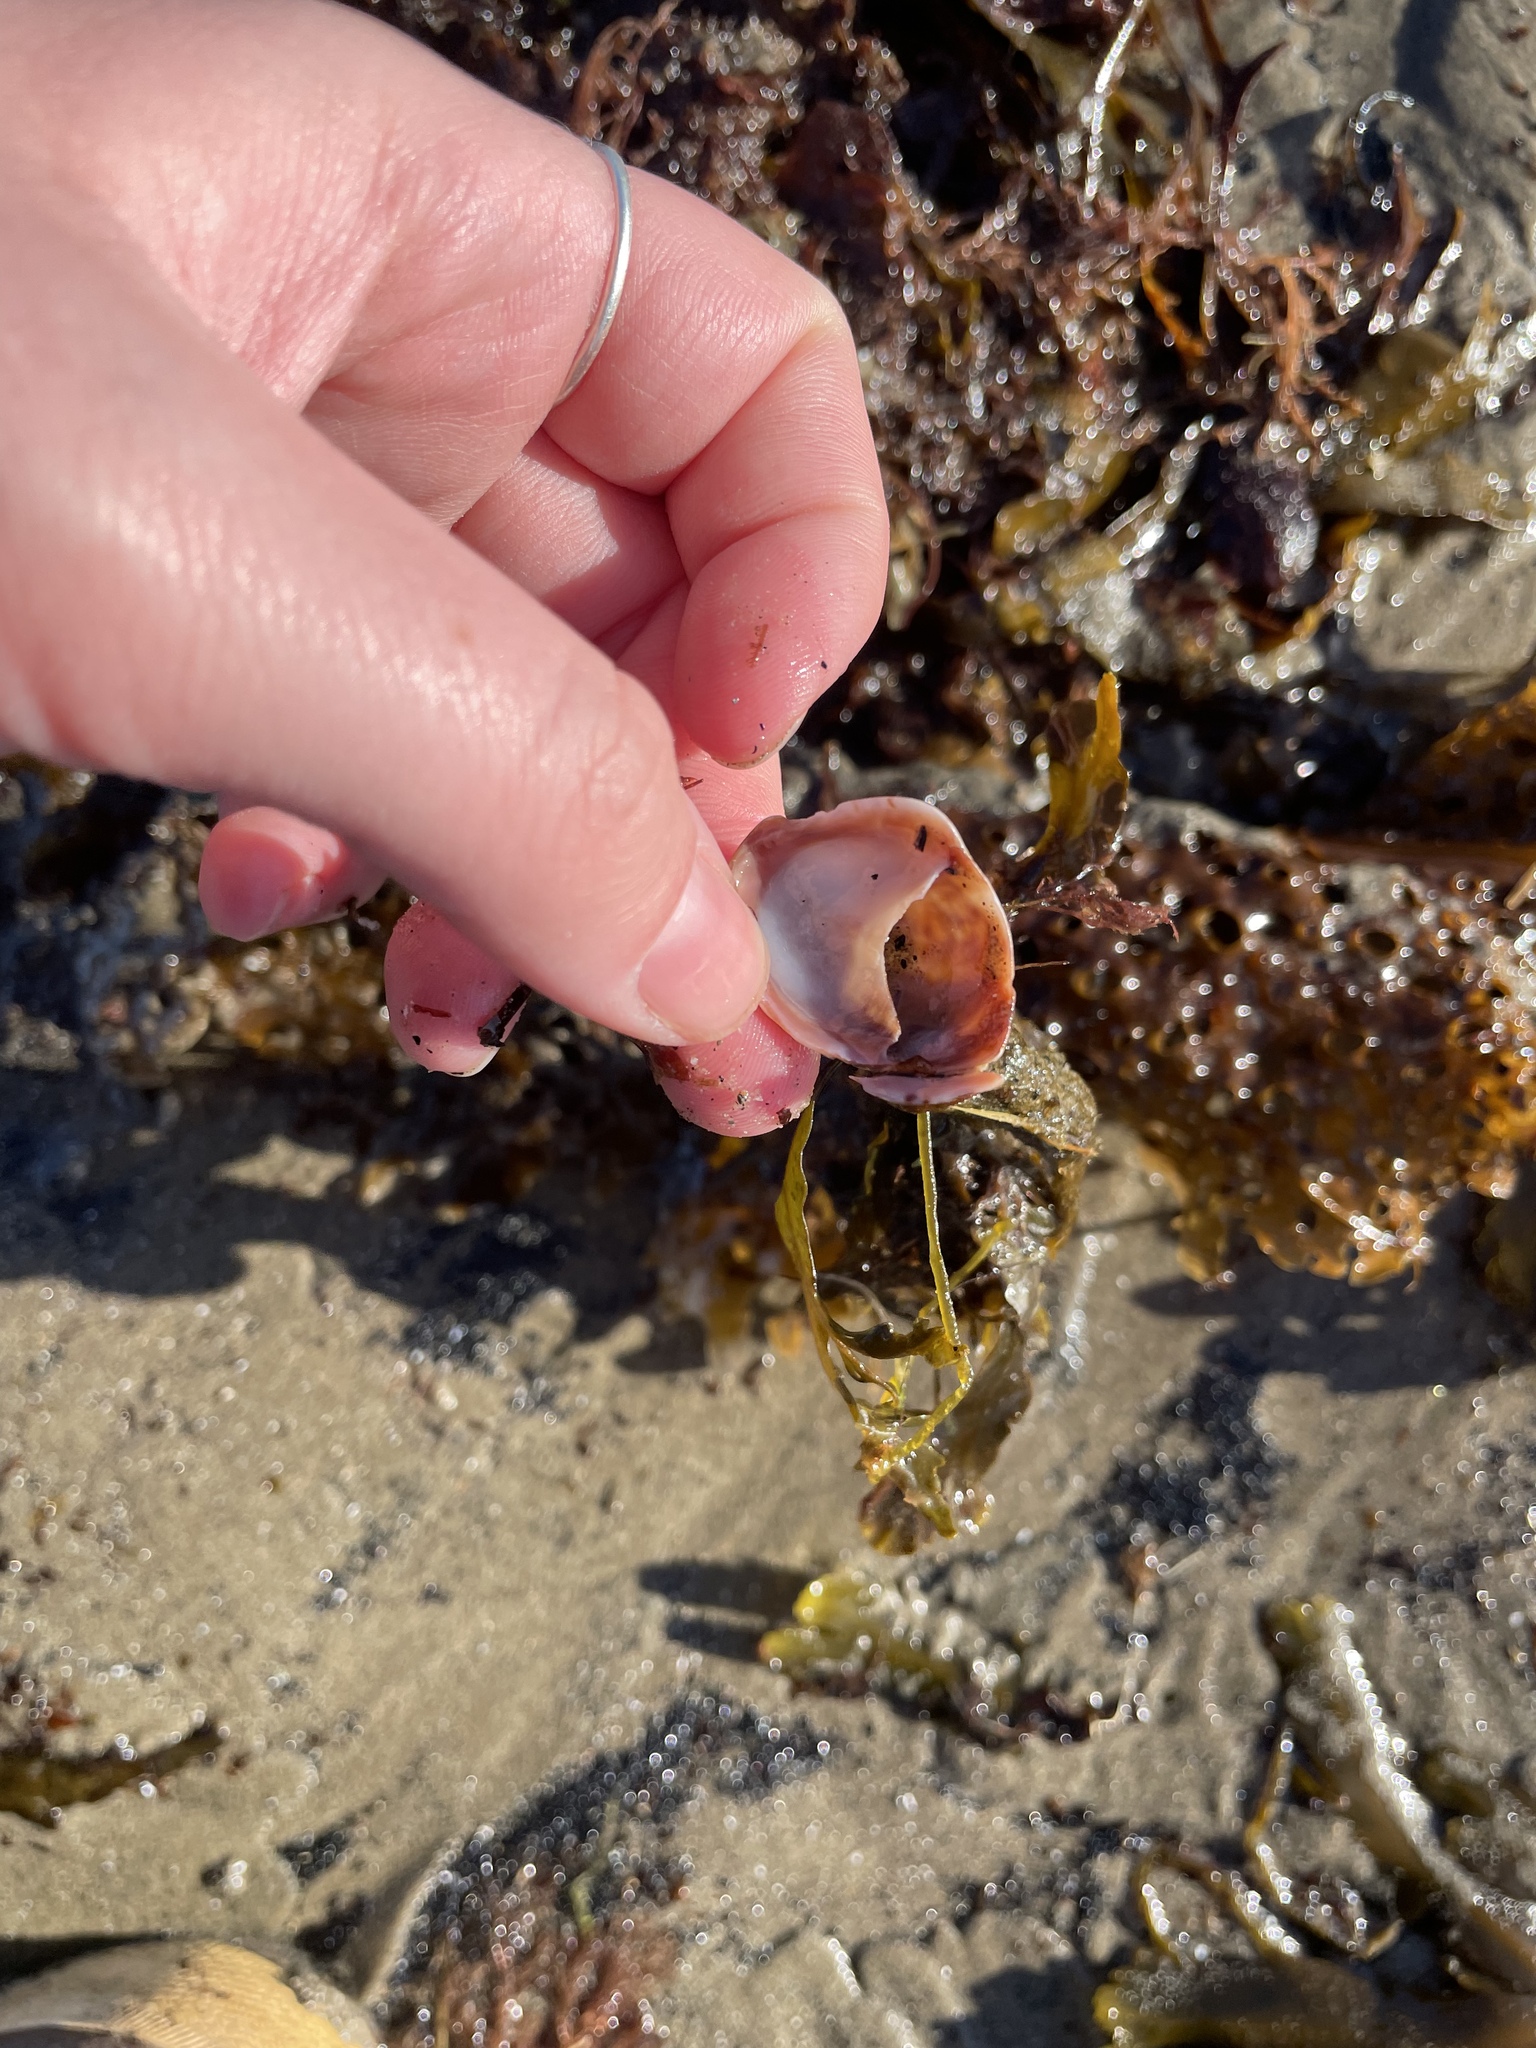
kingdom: Animalia
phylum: Mollusca
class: Gastropoda
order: Littorinimorpha
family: Calyptraeidae
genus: Crepidula
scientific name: Crepidula fornicata
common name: Slipper limpet
